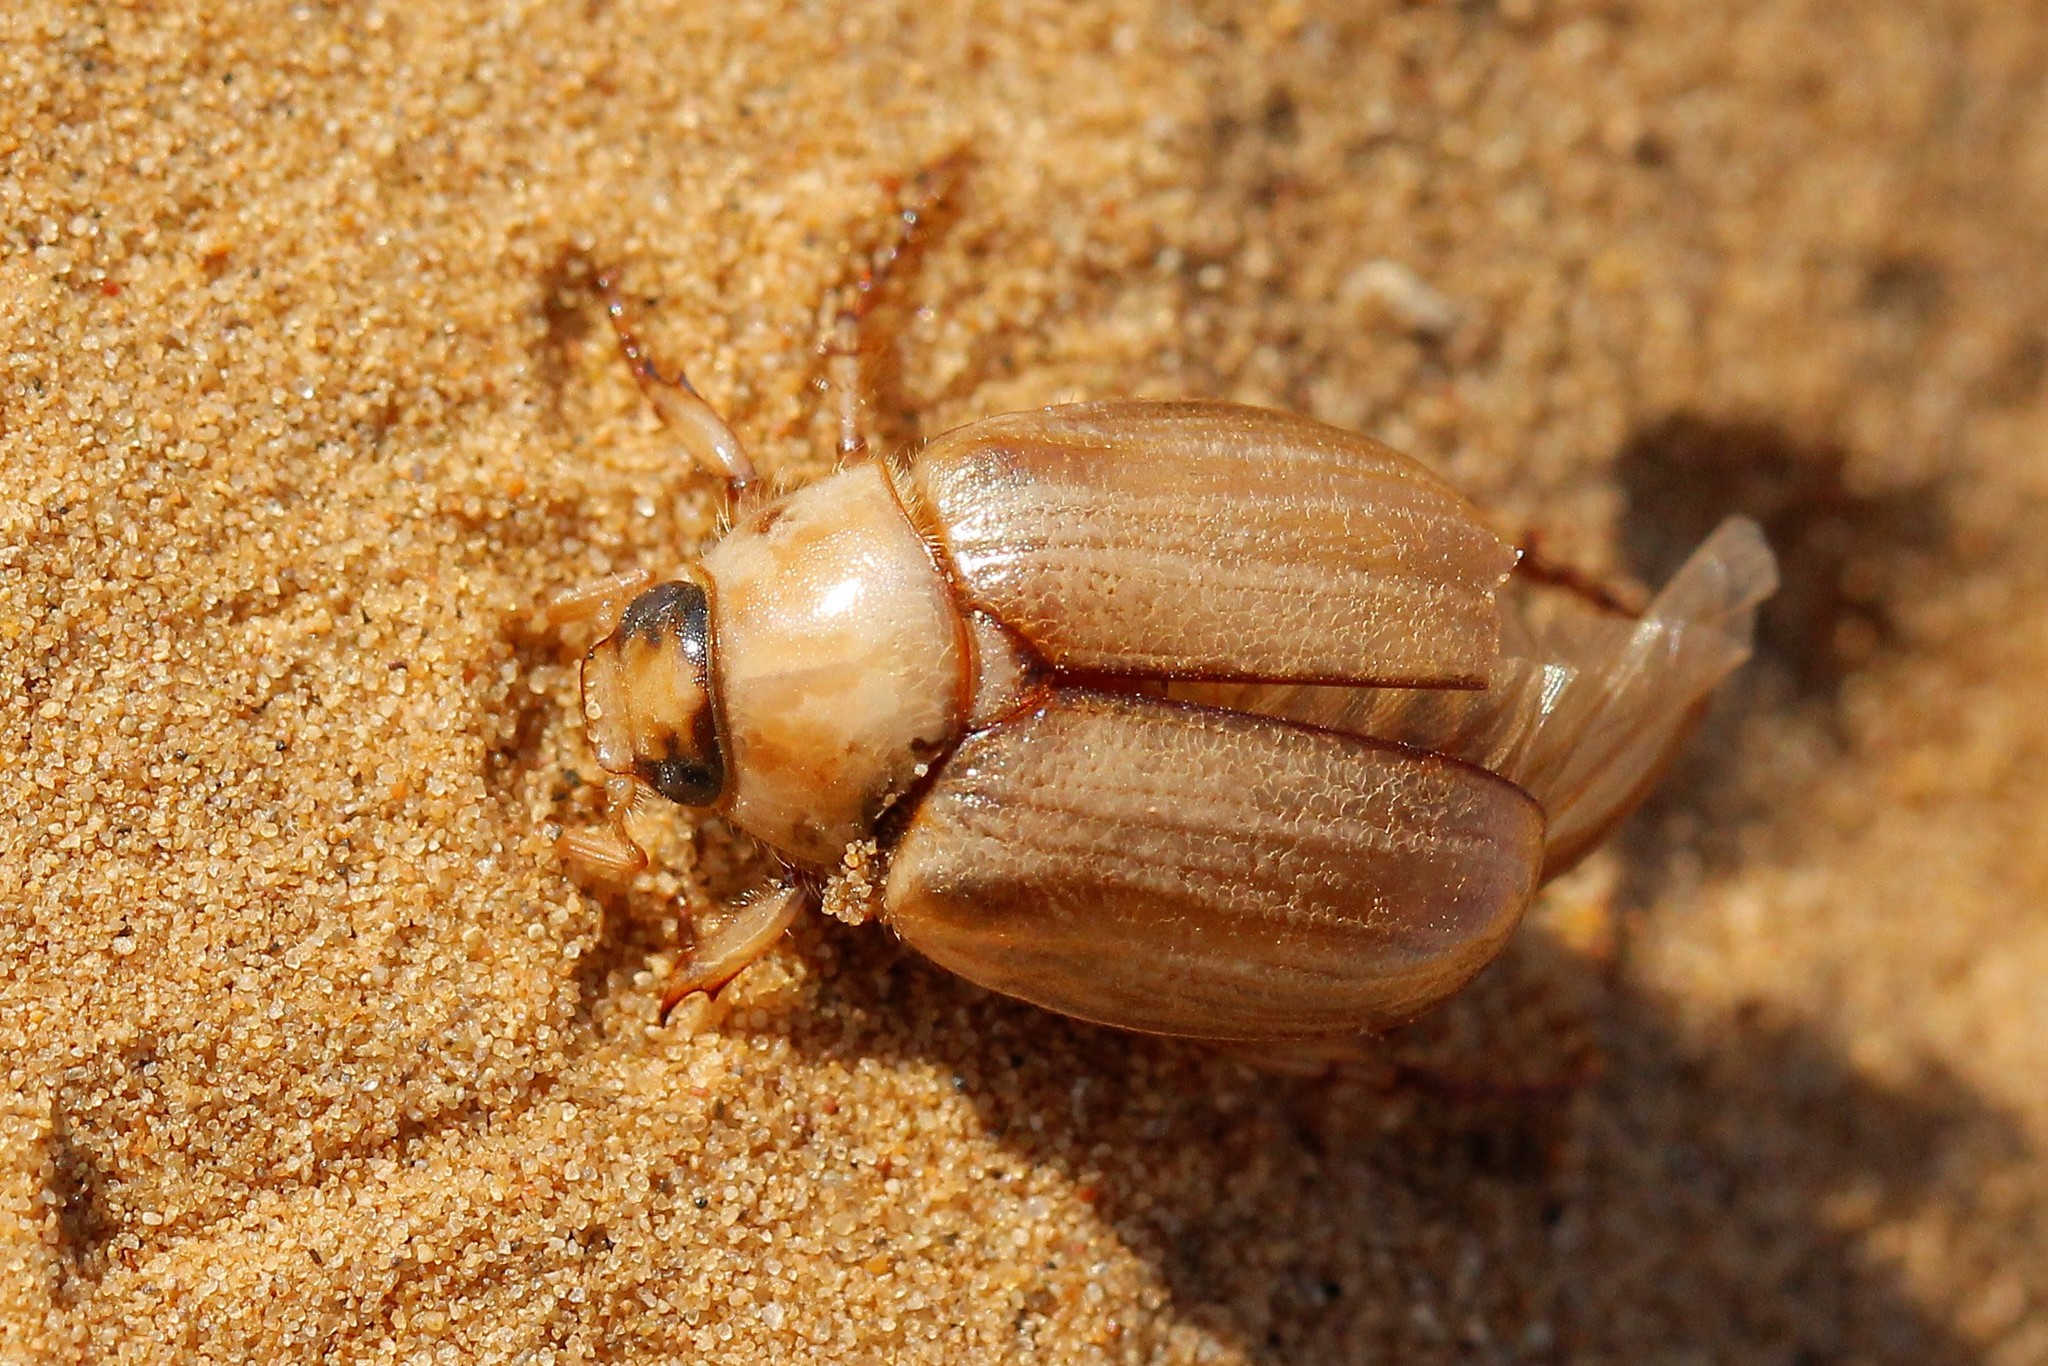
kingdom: Animalia
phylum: Arthropoda
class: Insecta
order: Coleoptera
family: Scarabaeidae
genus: Anomala
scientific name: Anomala errans
